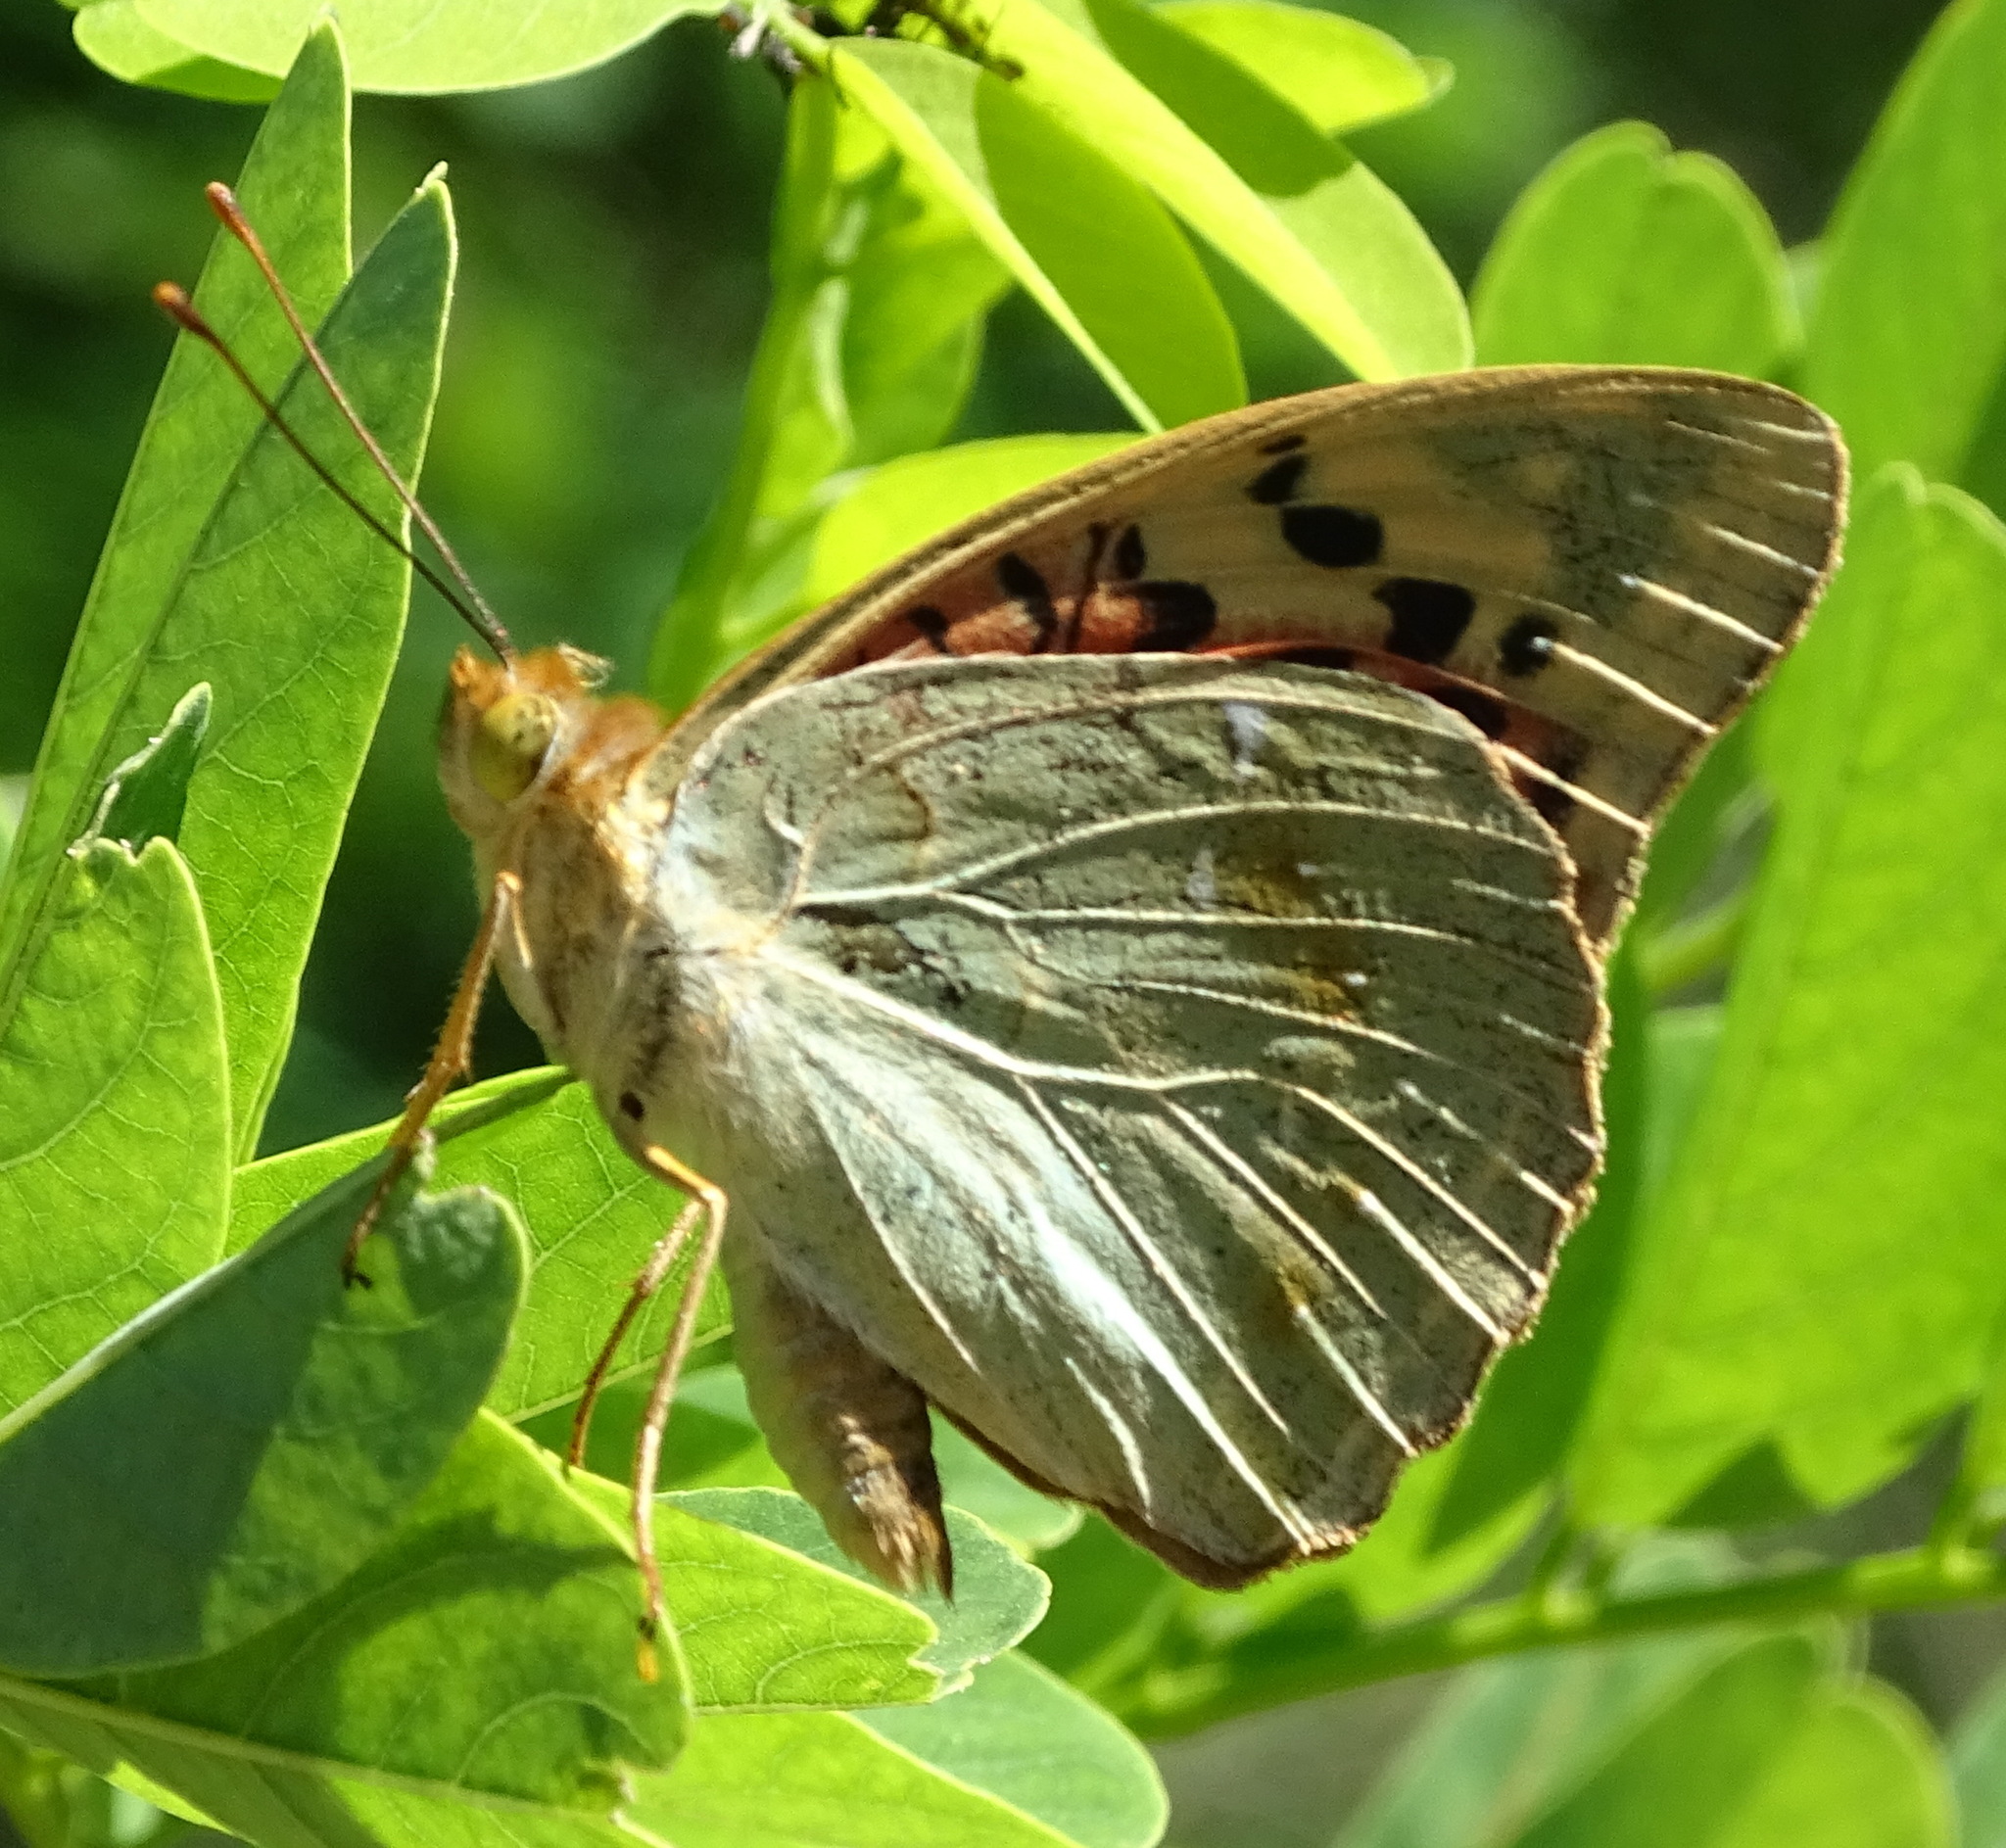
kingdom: Animalia
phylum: Arthropoda
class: Insecta
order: Lepidoptera
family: Nymphalidae
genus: Damora
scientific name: Damora pandora
